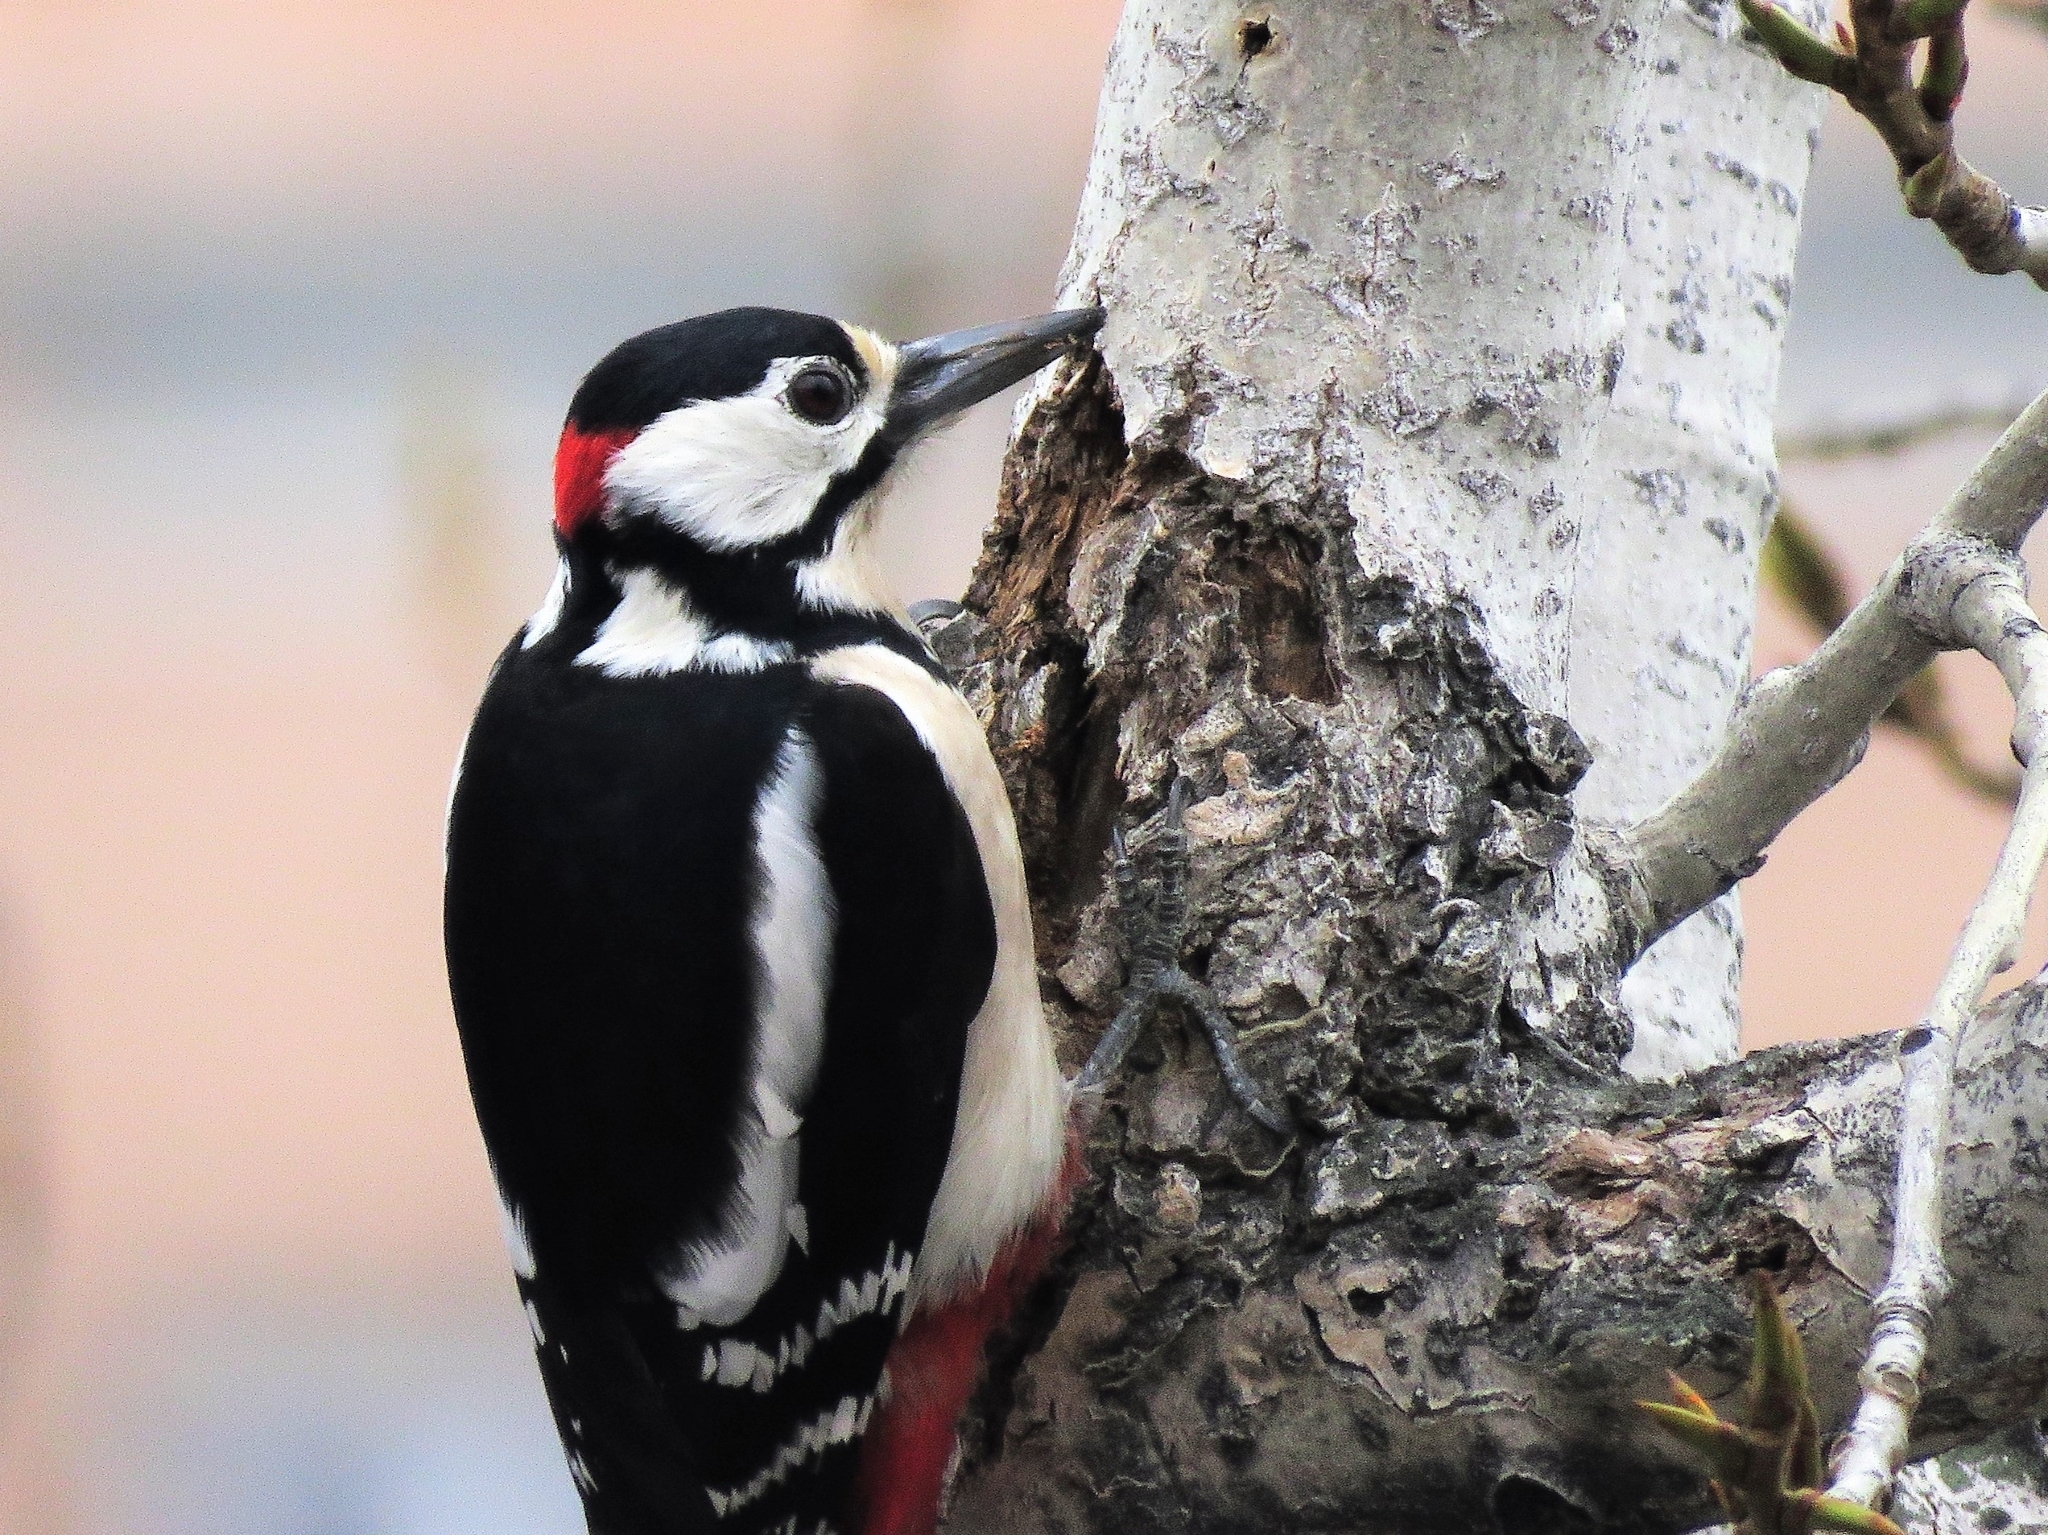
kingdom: Animalia
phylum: Chordata
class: Aves
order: Piciformes
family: Picidae
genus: Dendrocopos
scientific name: Dendrocopos major
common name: Great spotted woodpecker
